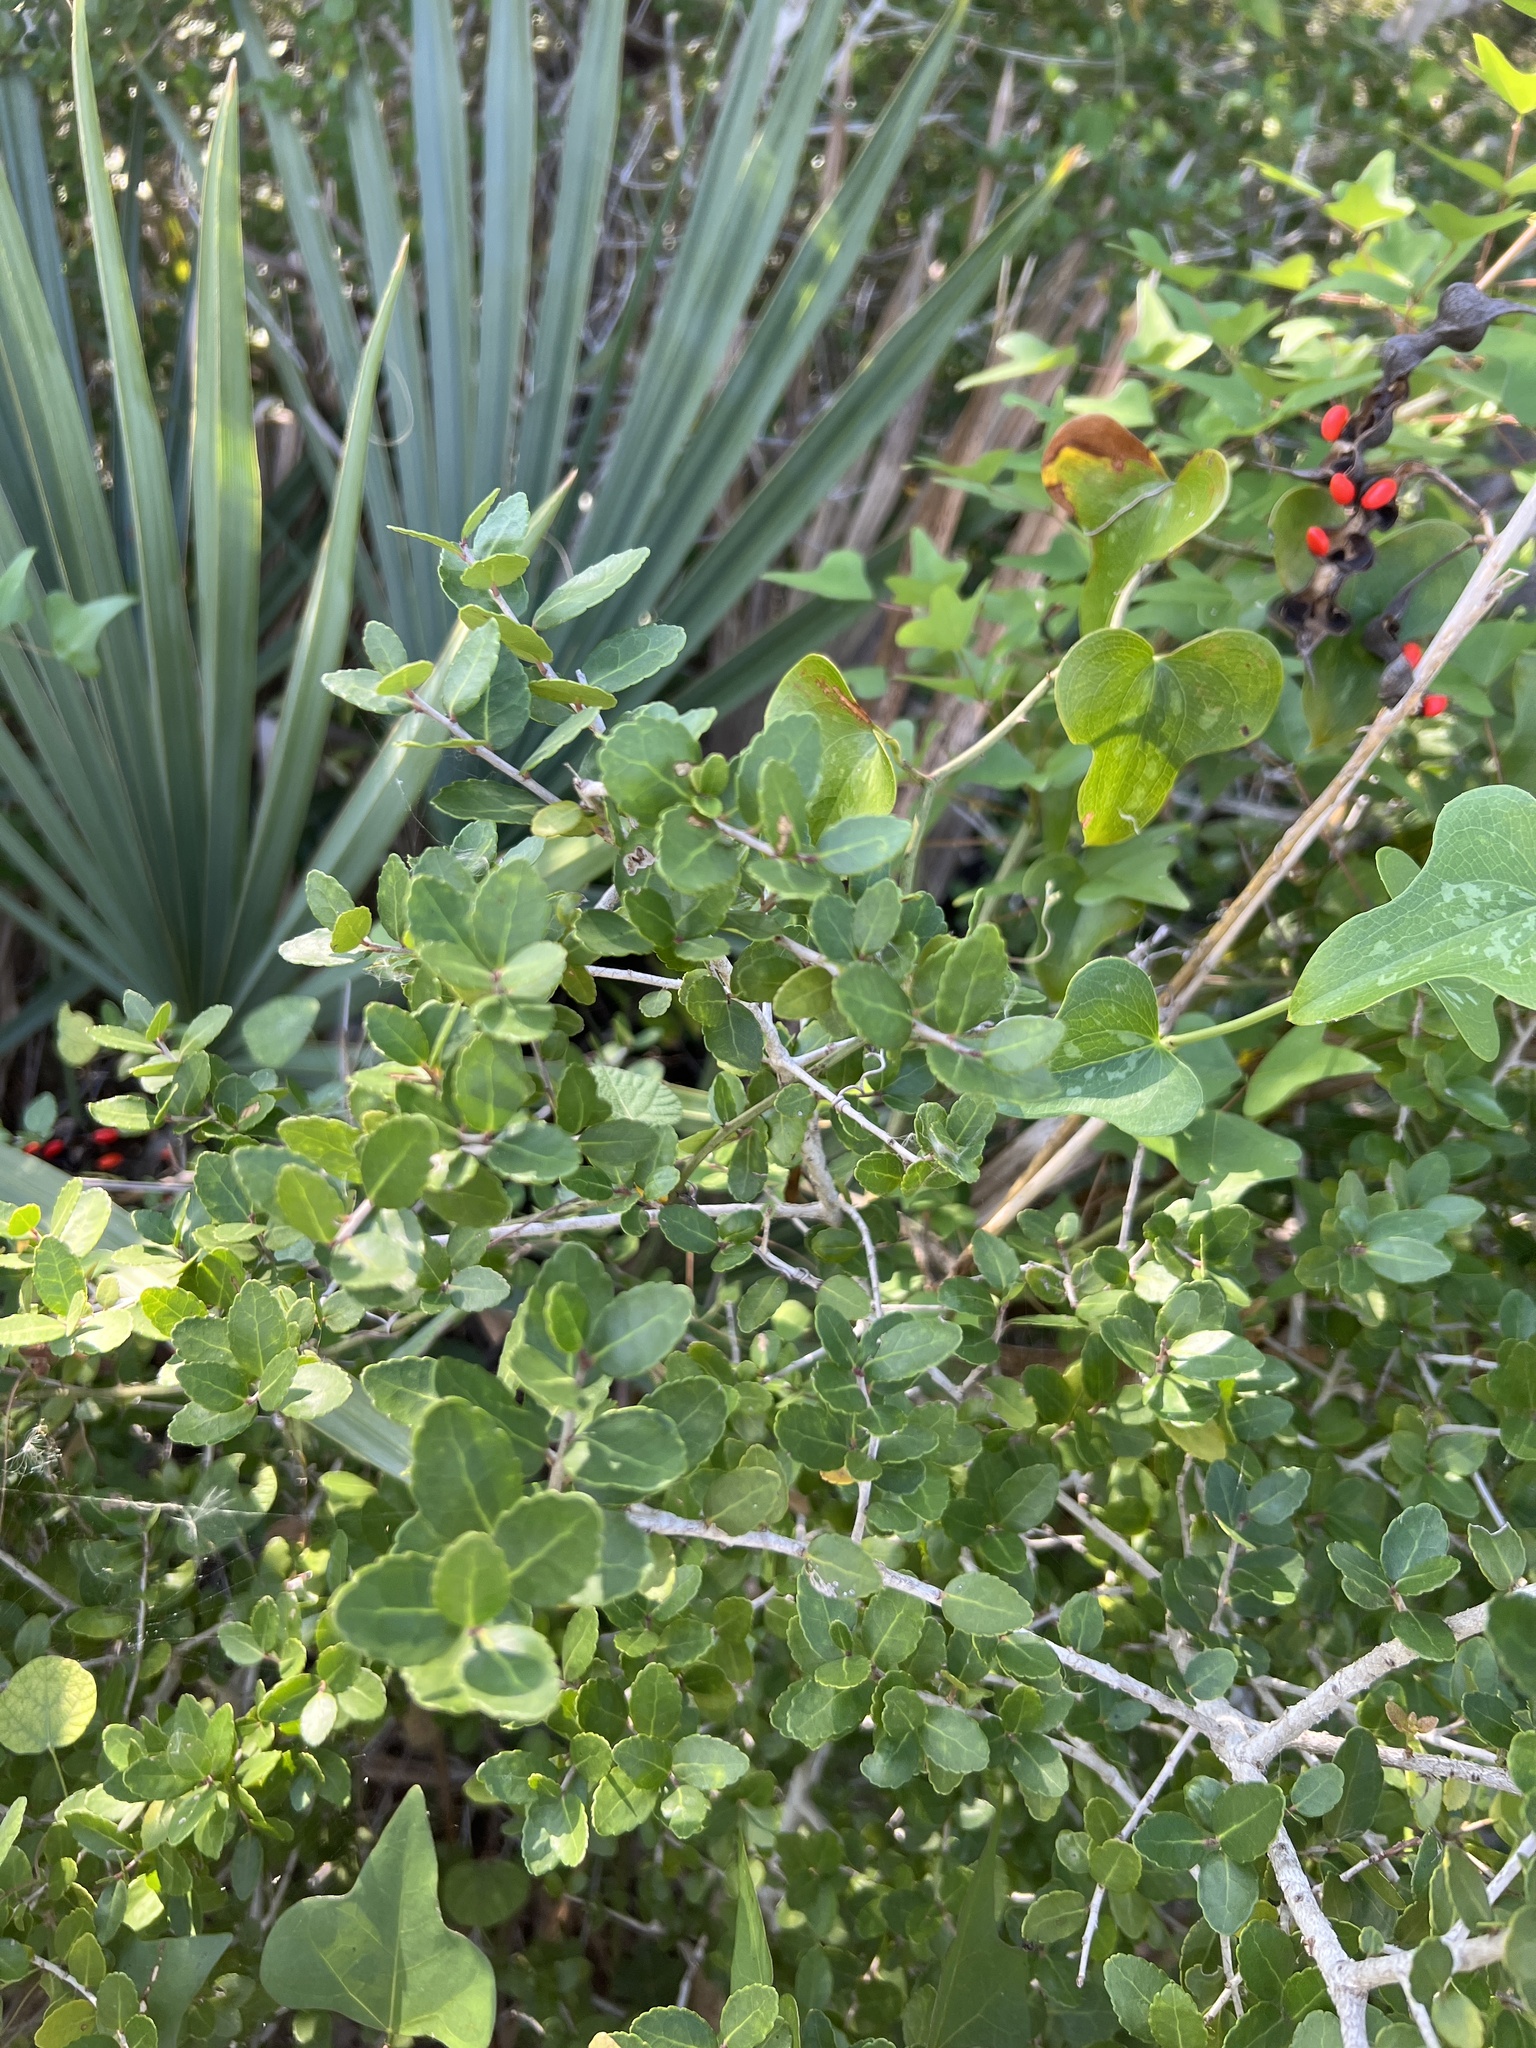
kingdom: Plantae
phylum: Tracheophyta
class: Magnoliopsida
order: Aquifoliales
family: Aquifoliaceae
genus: Ilex
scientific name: Ilex vomitoria
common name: Yaupon holly
